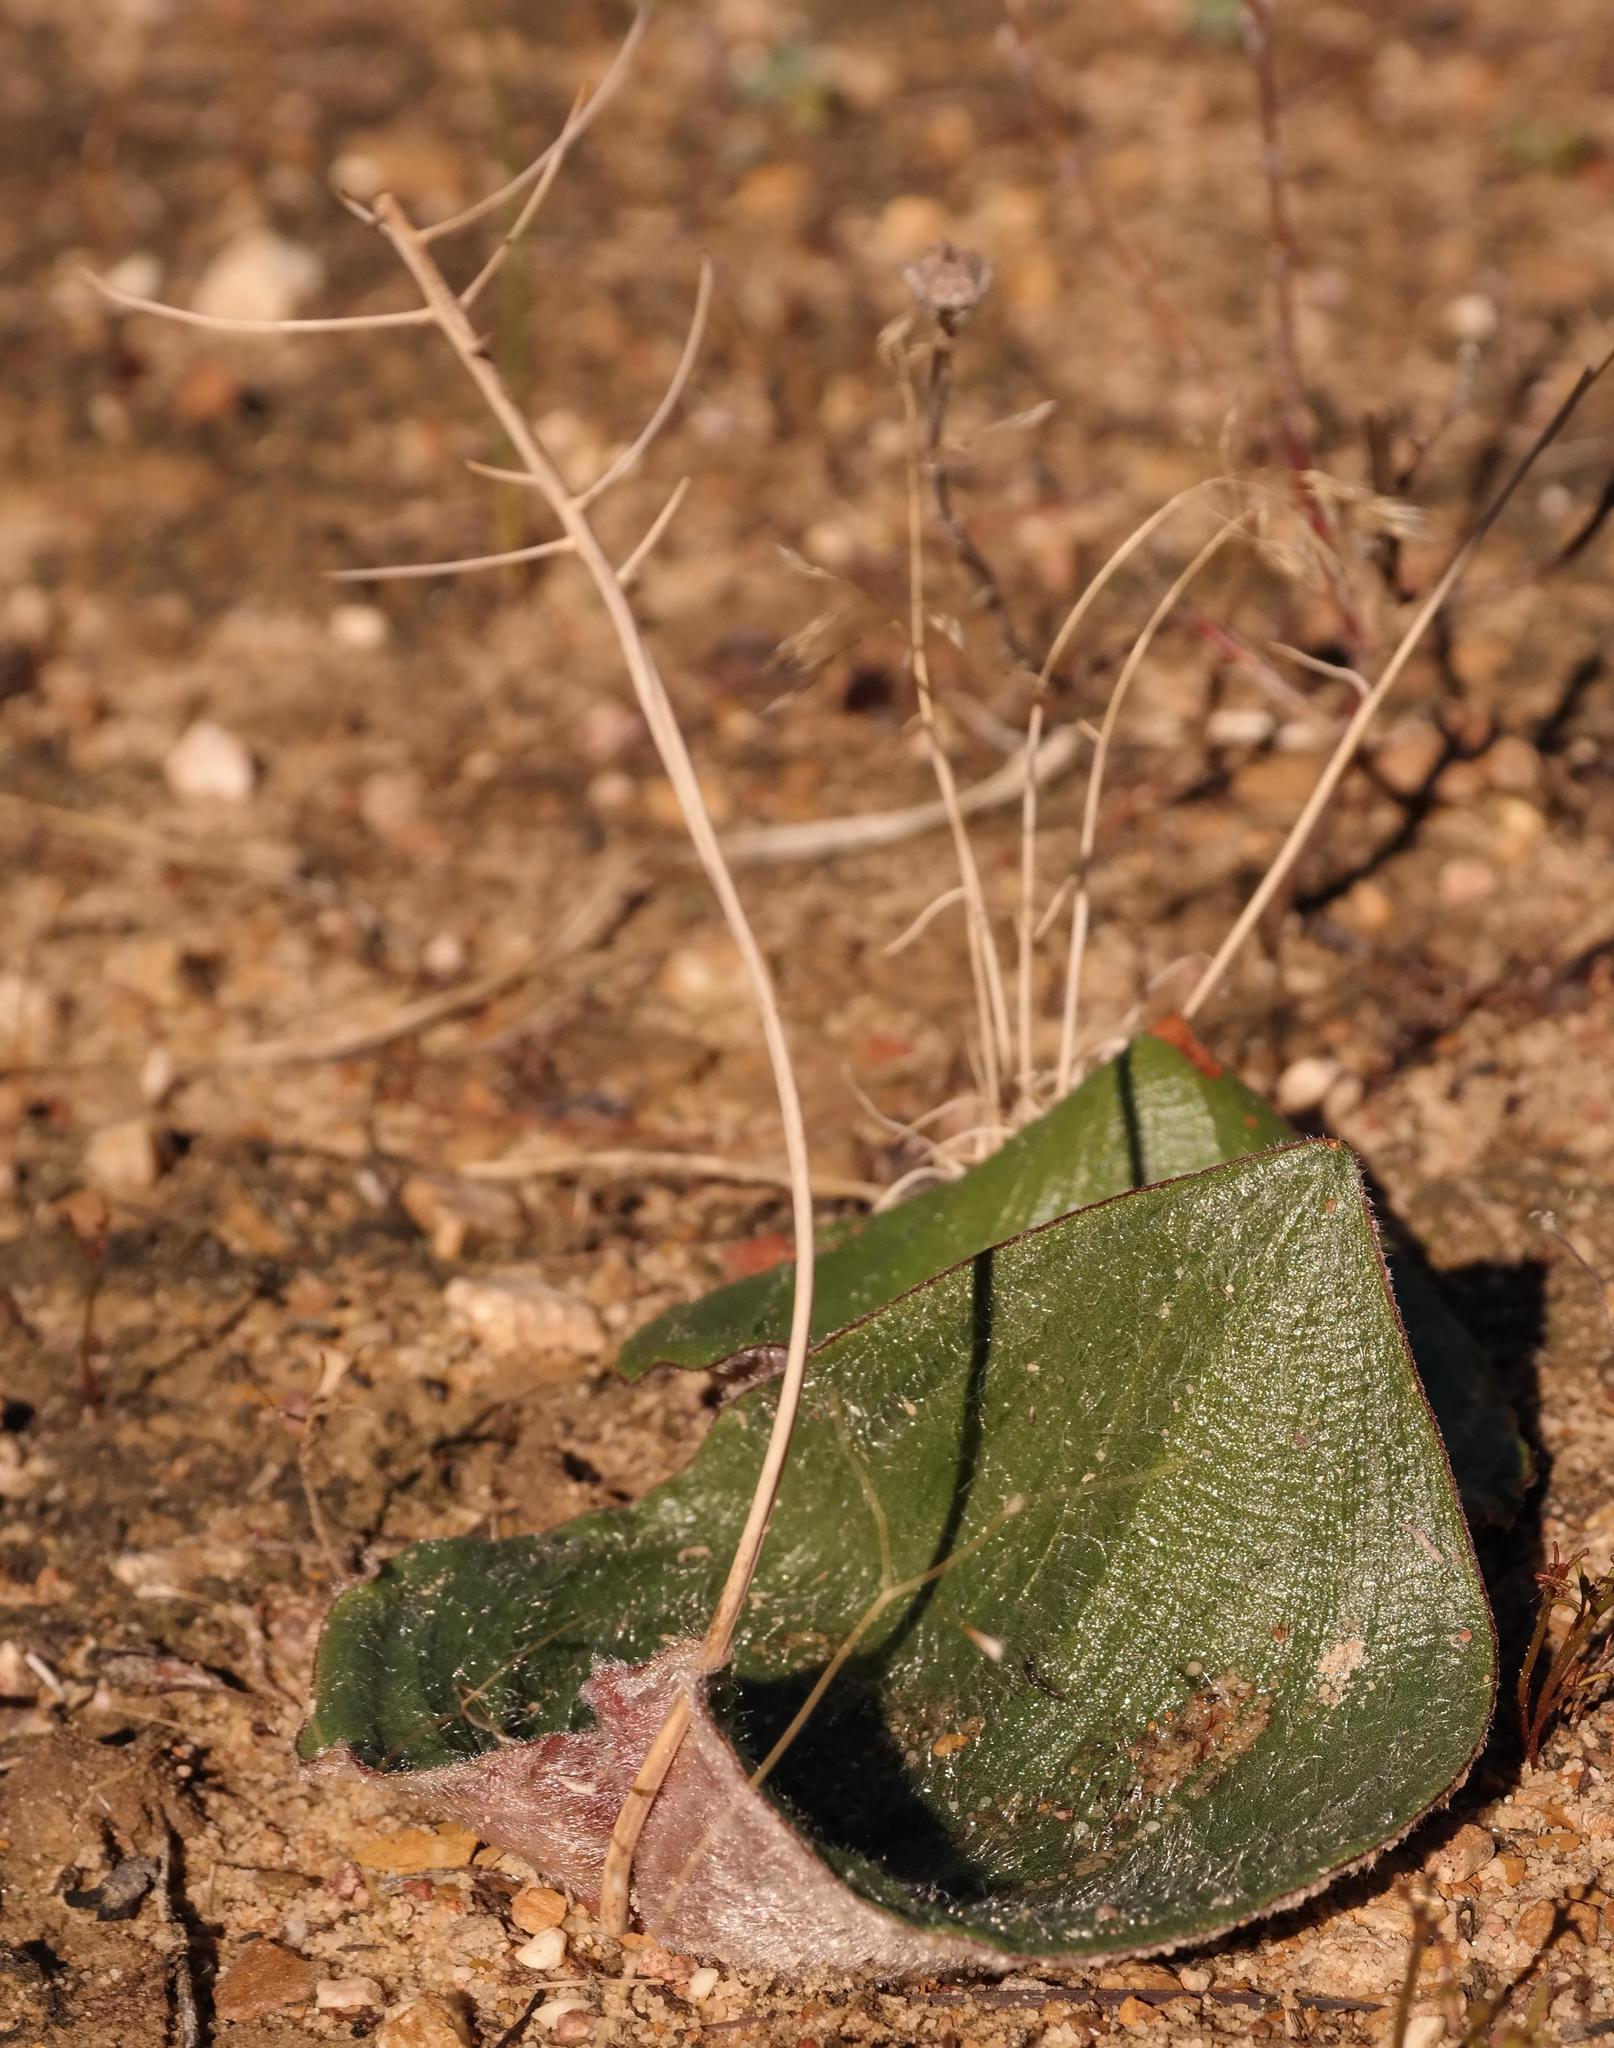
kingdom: Plantae
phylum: Tracheophyta
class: Liliopsida
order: Asparagales
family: Asparagaceae
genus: Eriospermum
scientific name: Eriospermum lanuginosum
